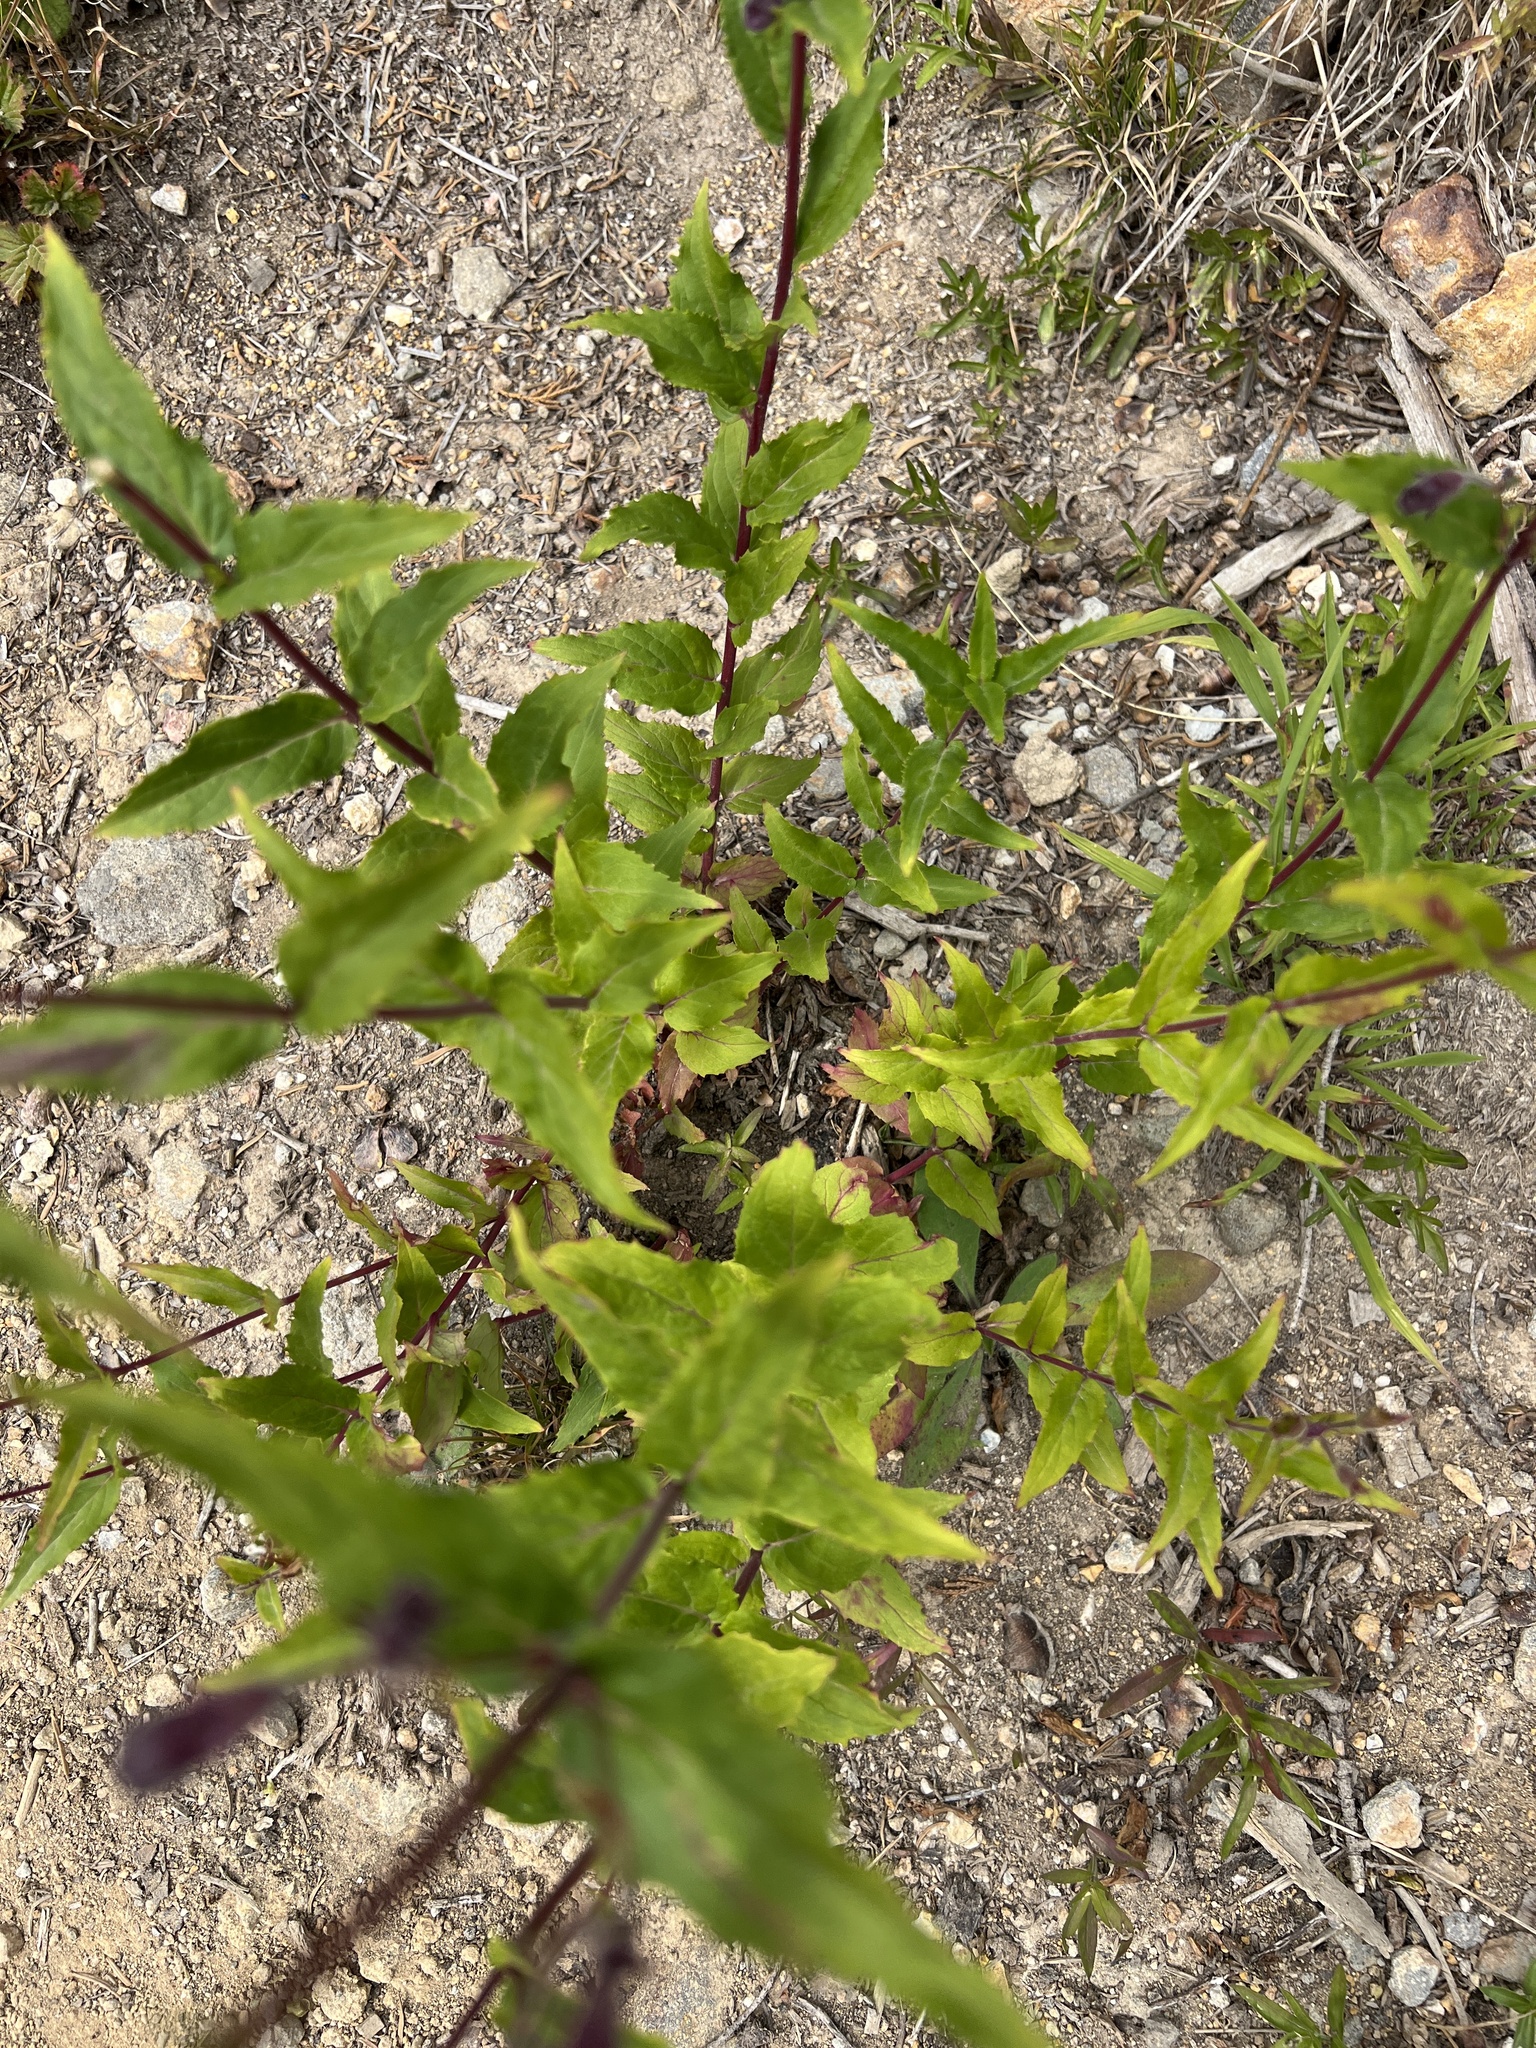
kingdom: Plantae
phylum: Tracheophyta
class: Magnoliopsida
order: Lamiales
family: Plantaginaceae
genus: Nothochelone
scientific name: Nothochelone nemorosa
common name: Woodland beardtongue
